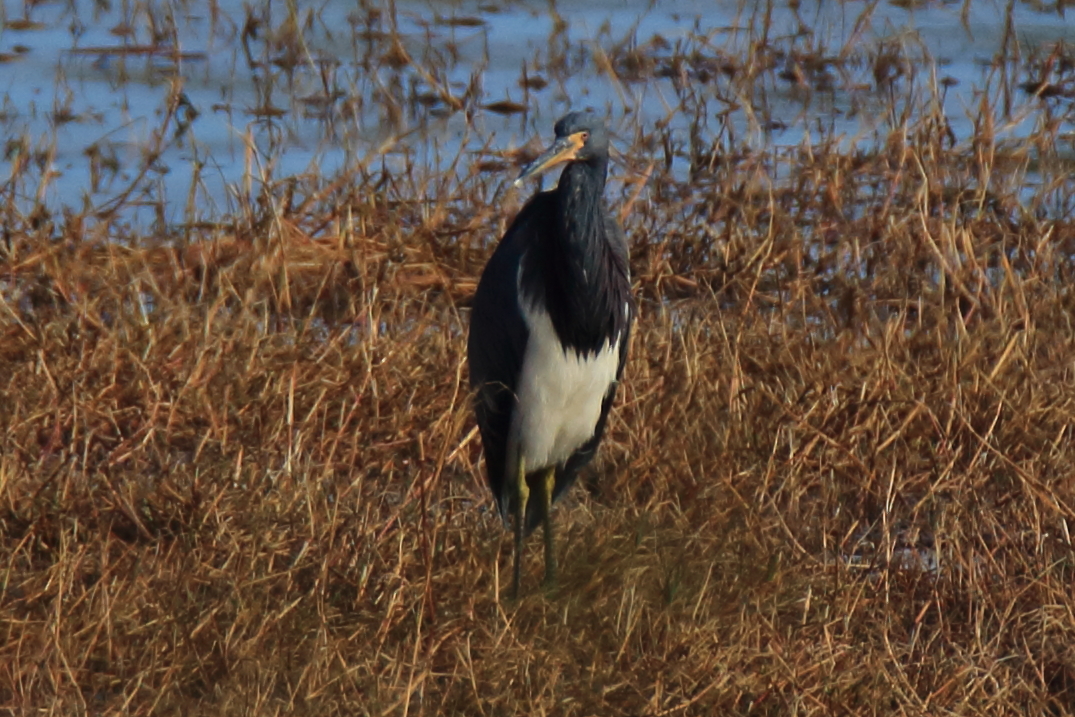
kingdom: Animalia
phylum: Chordata
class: Aves
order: Pelecaniformes
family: Ardeidae
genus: Egretta
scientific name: Egretta tricolor
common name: Tricolored heron
